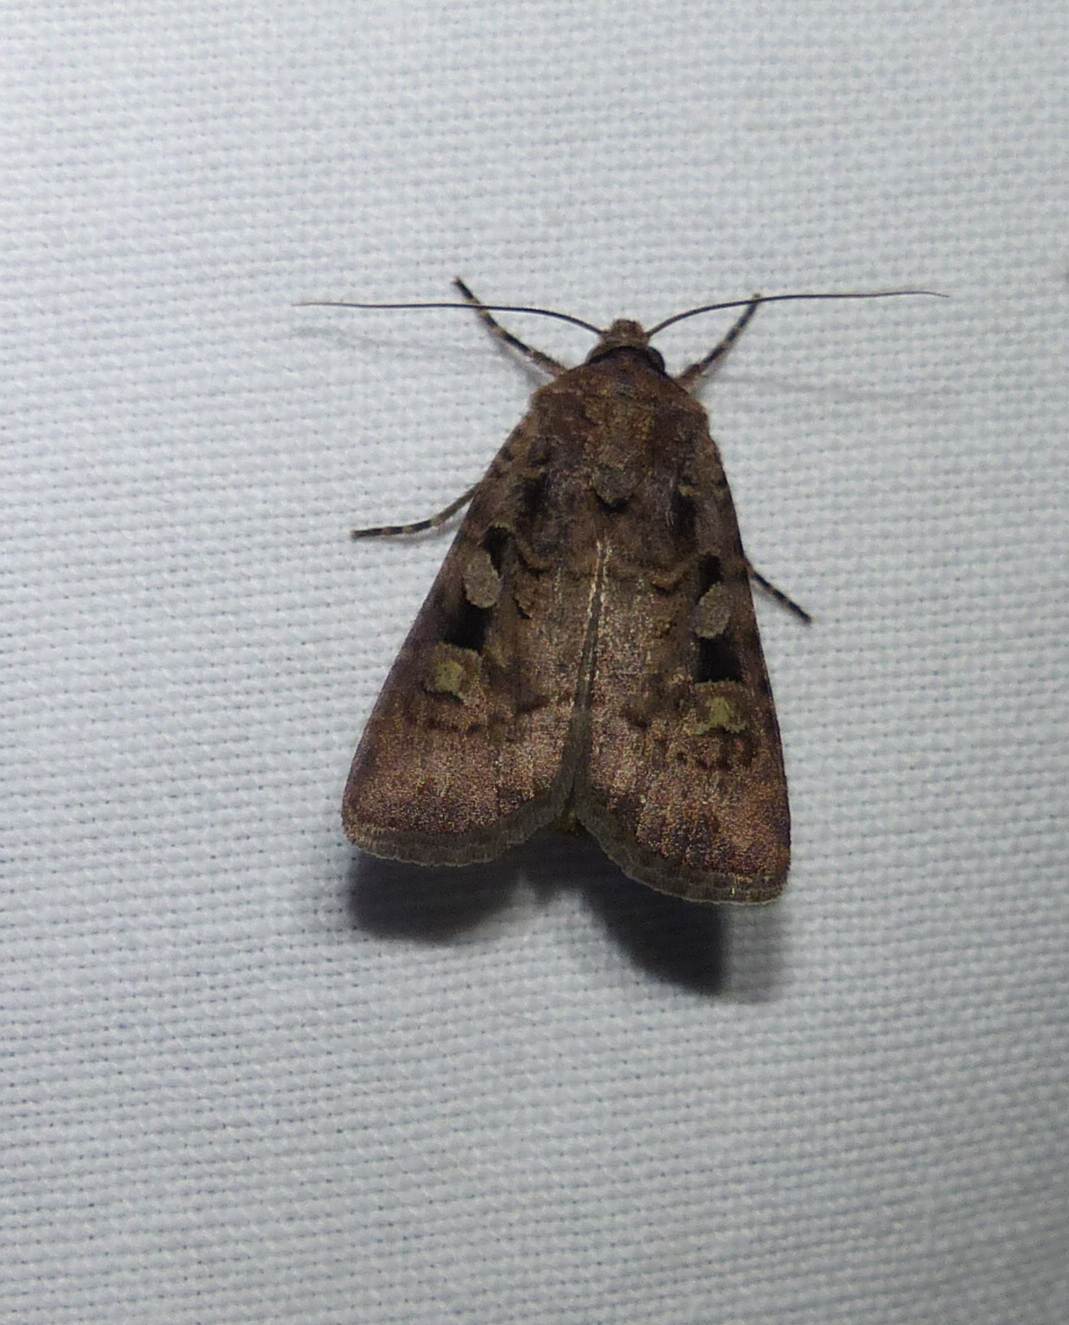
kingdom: Animalia
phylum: Arthropoda
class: Insecta
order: Lepidoptera
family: Noctuidae
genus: Euxoa
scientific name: Euxoa tessellata
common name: Striped cutworm
